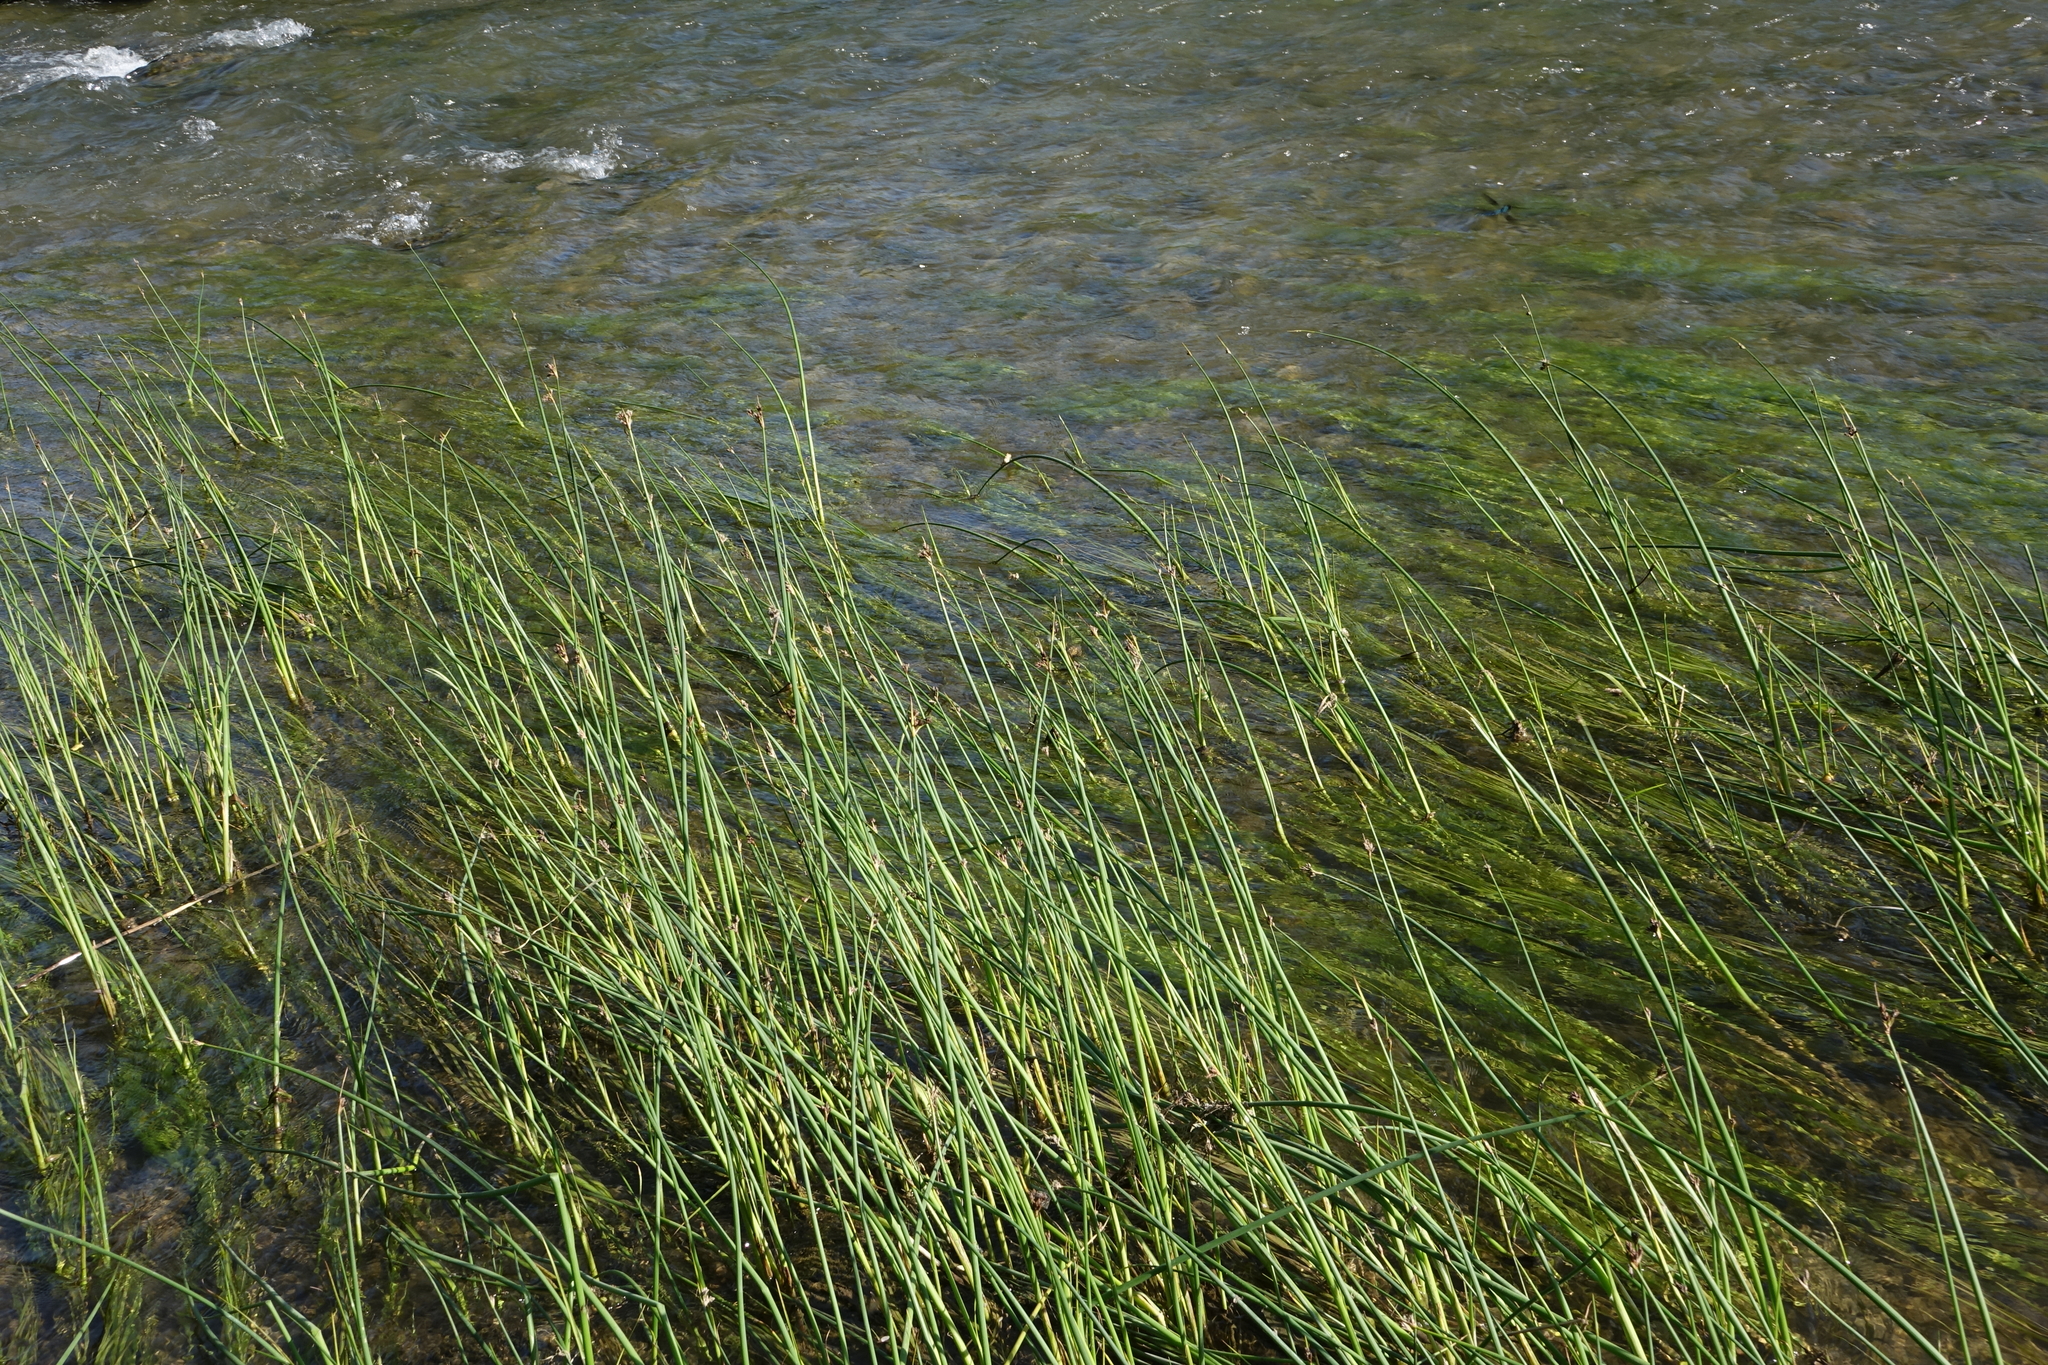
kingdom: Plantae
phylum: Tracheophyta
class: Liliopsida
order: Poales
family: Cyperaceae
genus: Schoenoplectus
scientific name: Schoenoplectus lacustris
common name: Common club-rush
